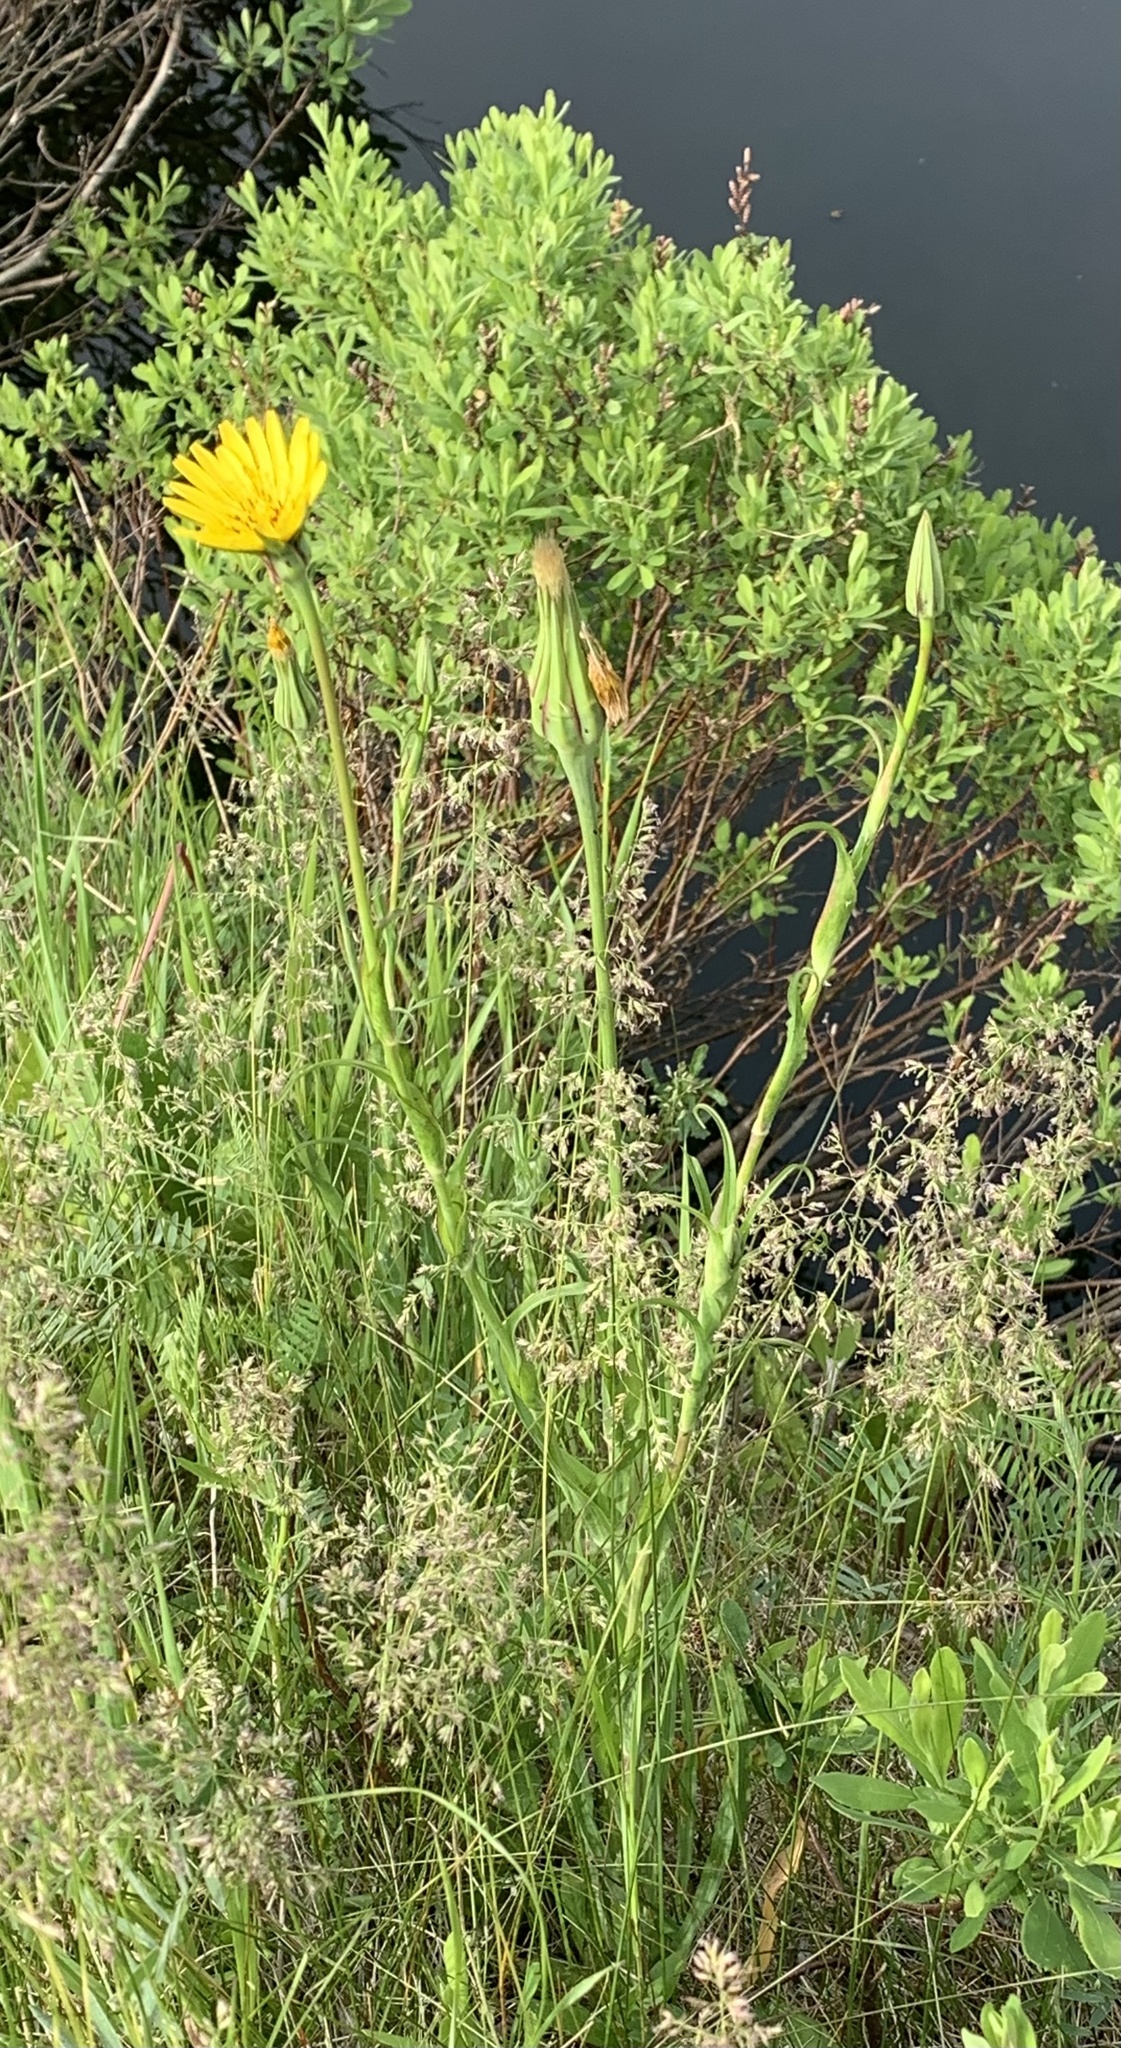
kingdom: Plantae
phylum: Tracheophyta
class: Magnoliopsida
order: Asterales
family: Asteraceae
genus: Tragopogon
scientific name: Tragopogon pratensis
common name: Goat's-beard
